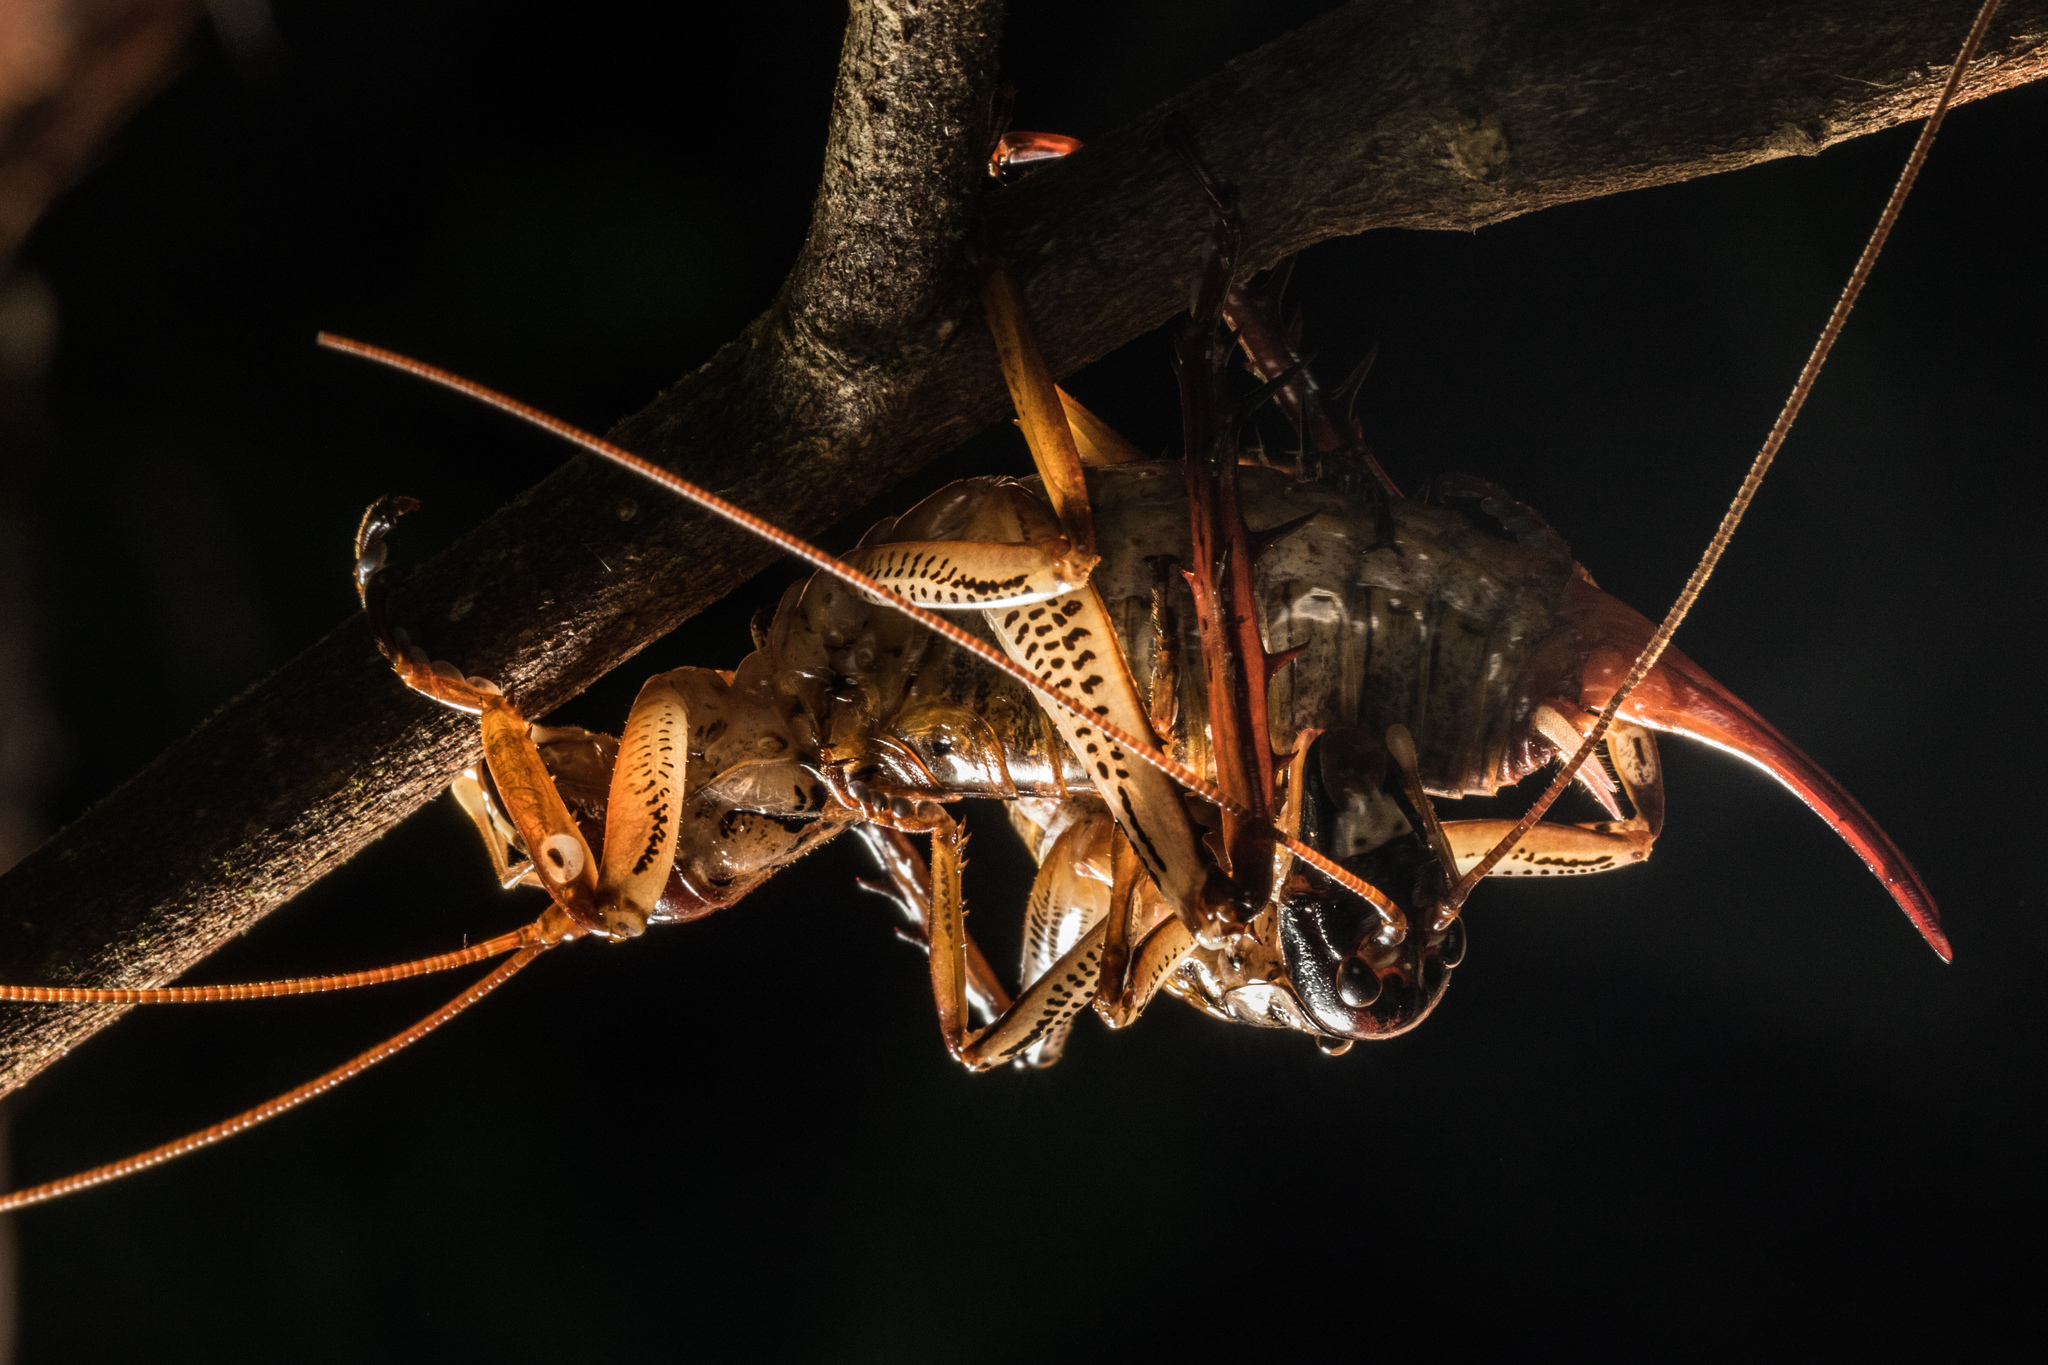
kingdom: Animalia
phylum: Arthropoda
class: Insecta
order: Orthoptera
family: Anostostomatidae
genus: Hemideina
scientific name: Hemideina thoracica
